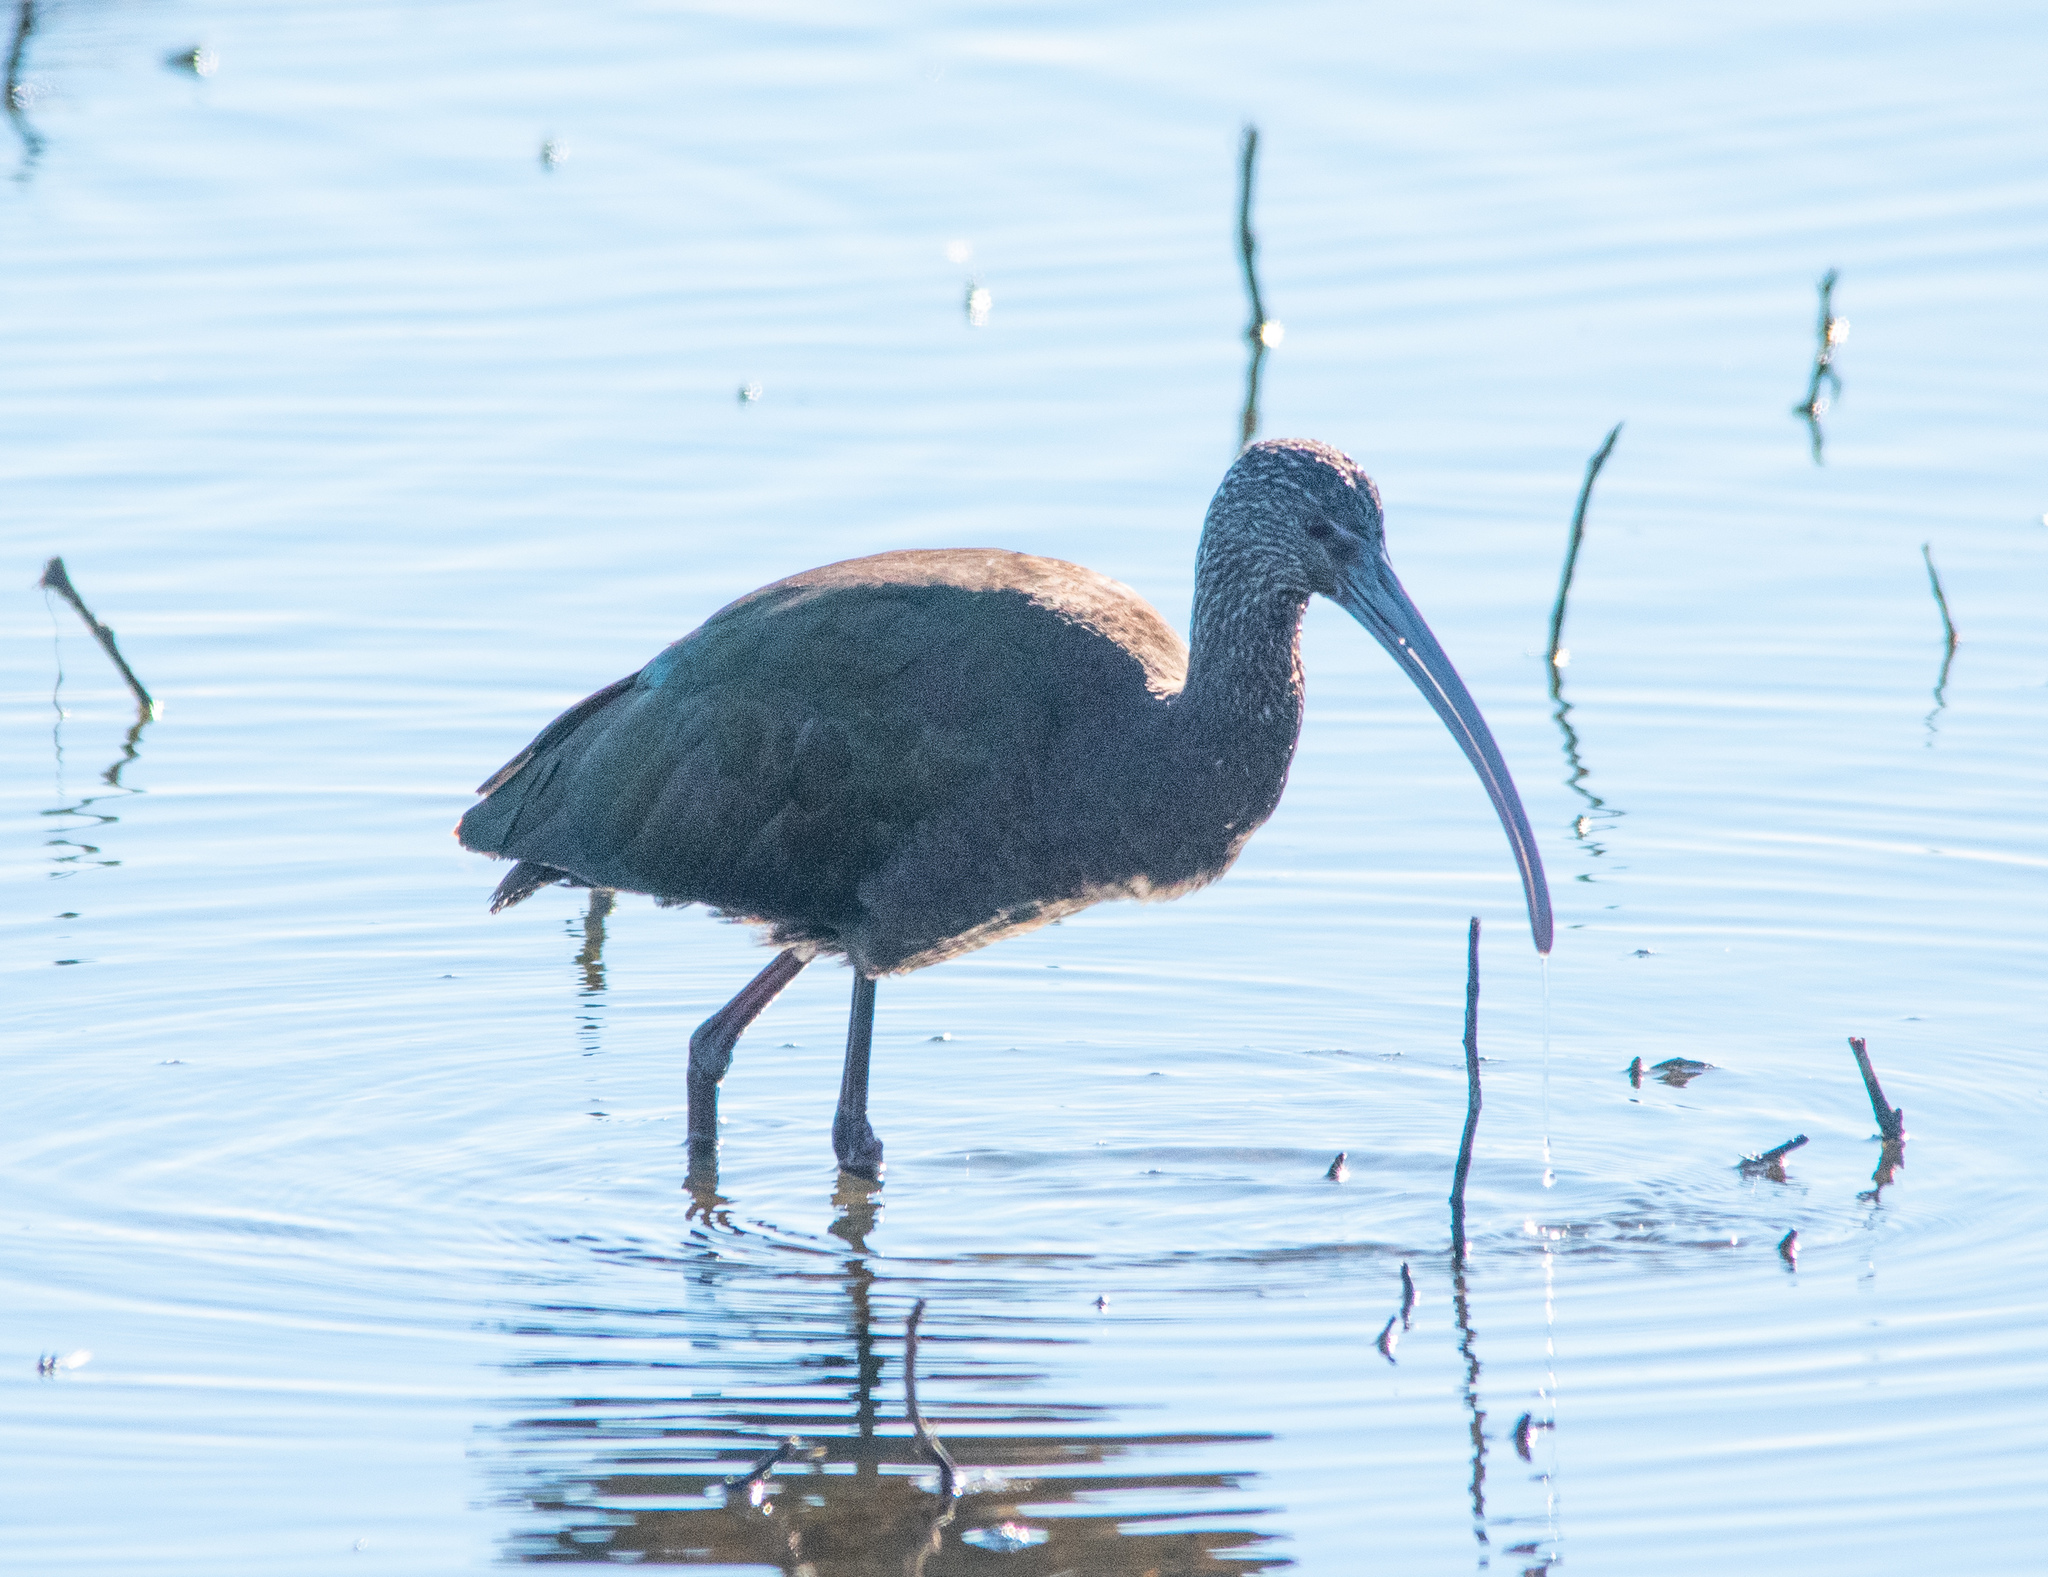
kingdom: Animalia
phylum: Chordata
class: Aves
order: Pelecaniformes
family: Threskiornithidae
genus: Plegadis
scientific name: Plegadis chihi
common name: White-faced ibis
